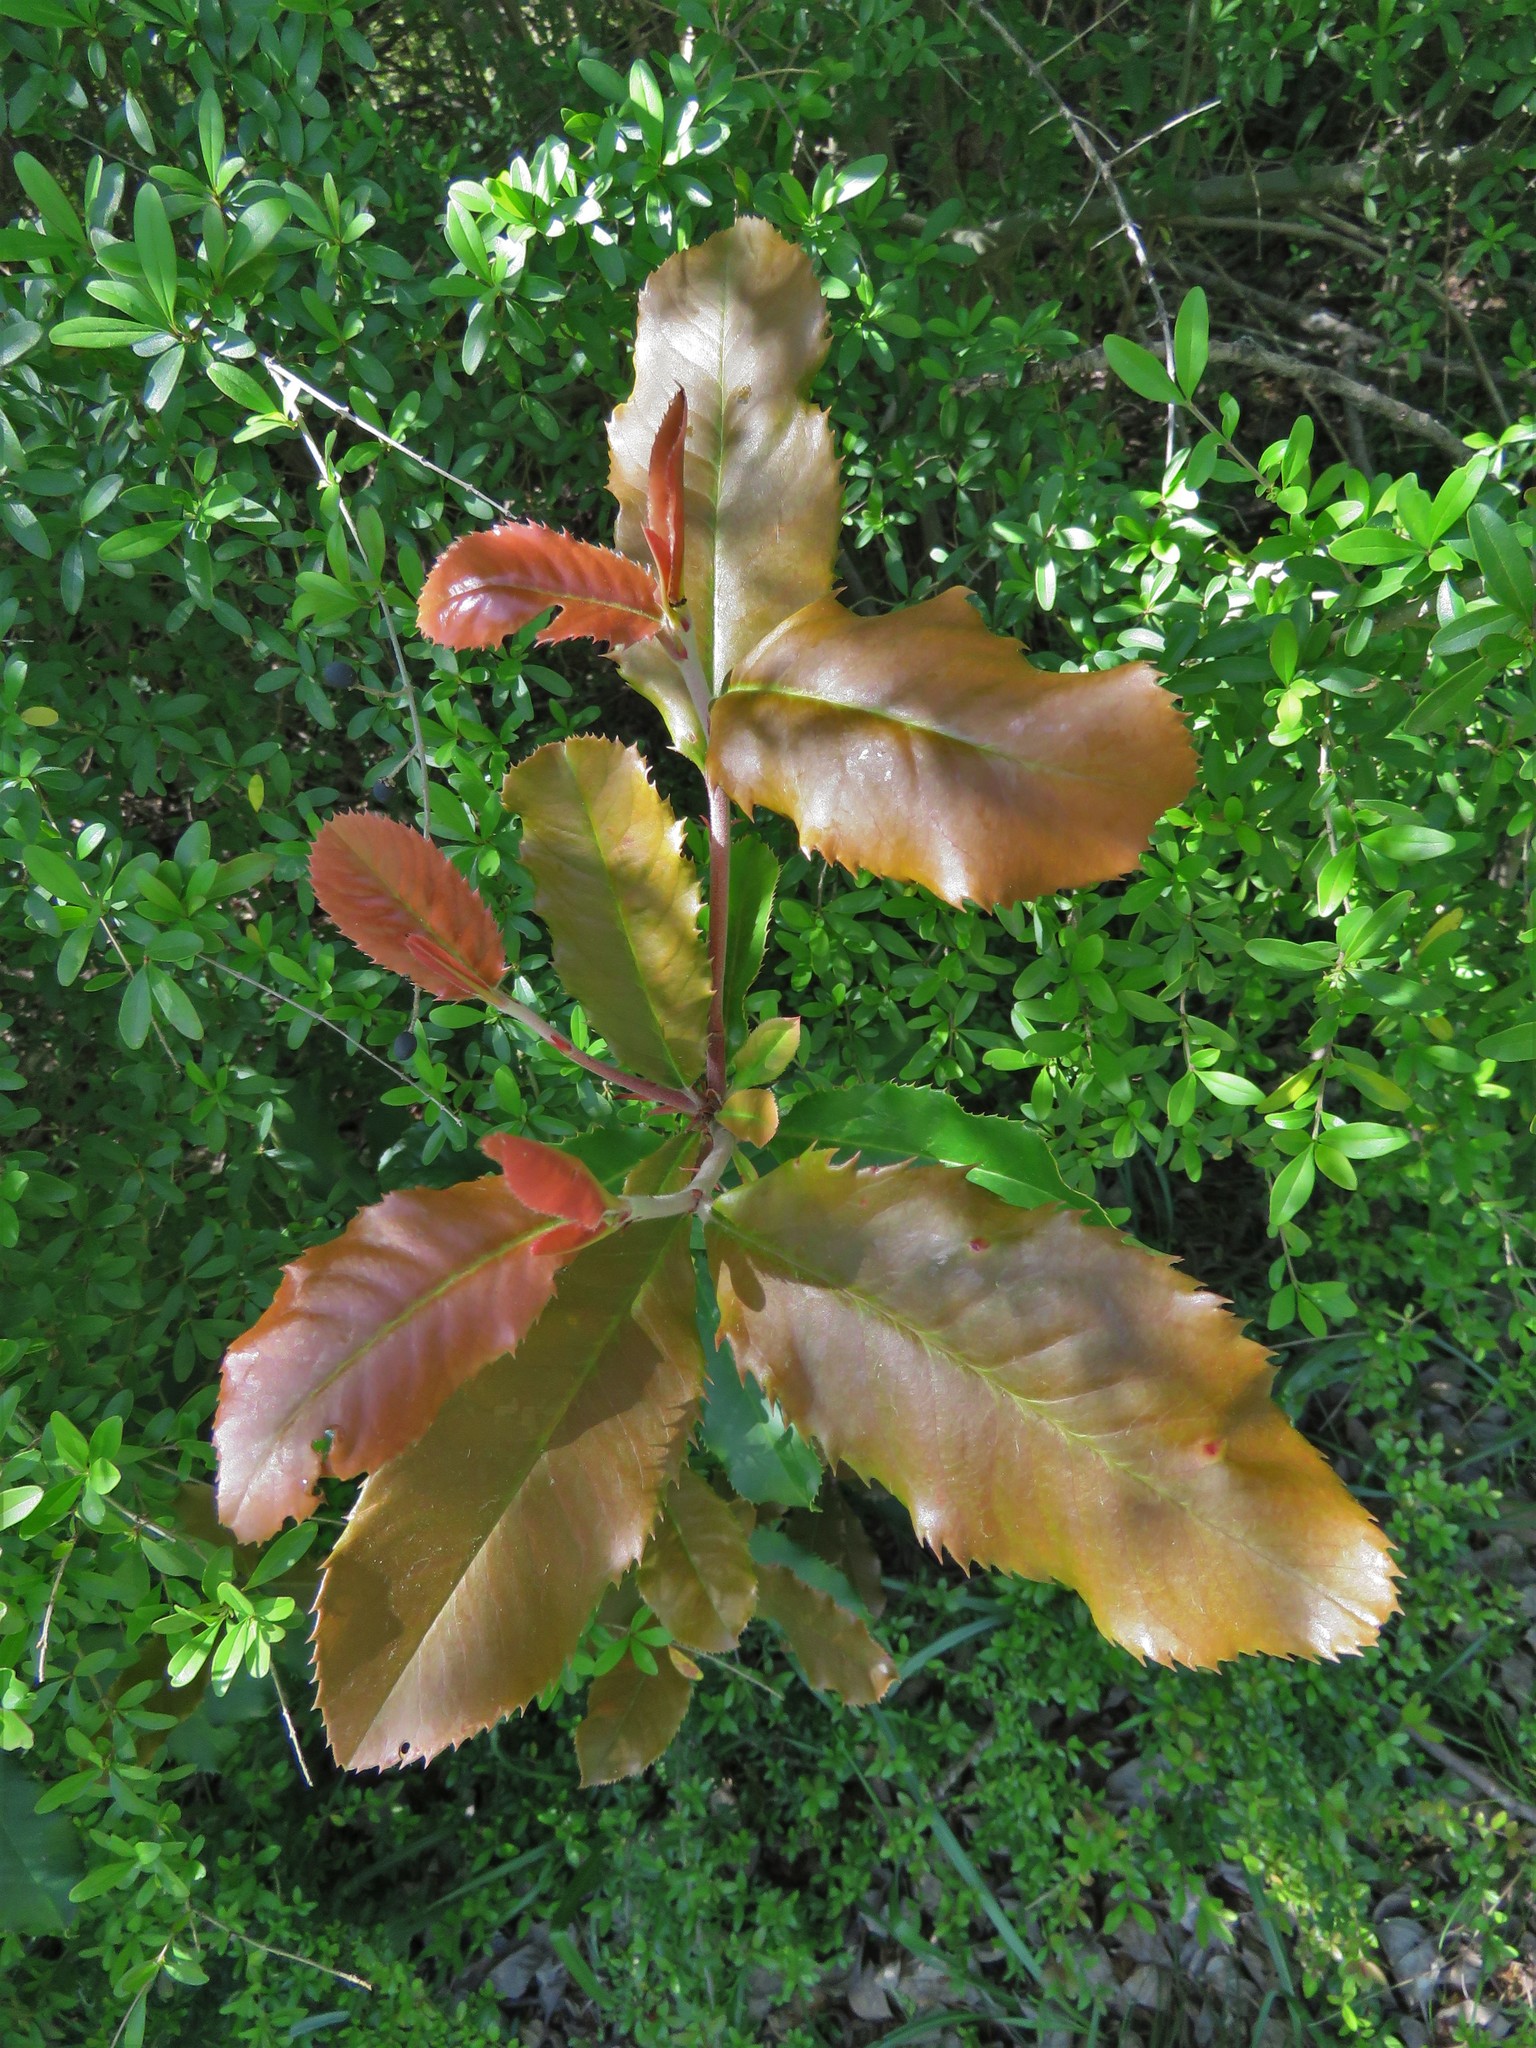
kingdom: Plantae
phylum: Tracheophyta
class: Magnoliopsida
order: Rosales
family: Rosaceae
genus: Photinia
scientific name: Photinia serratifolia
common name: Taiwanese photinia
